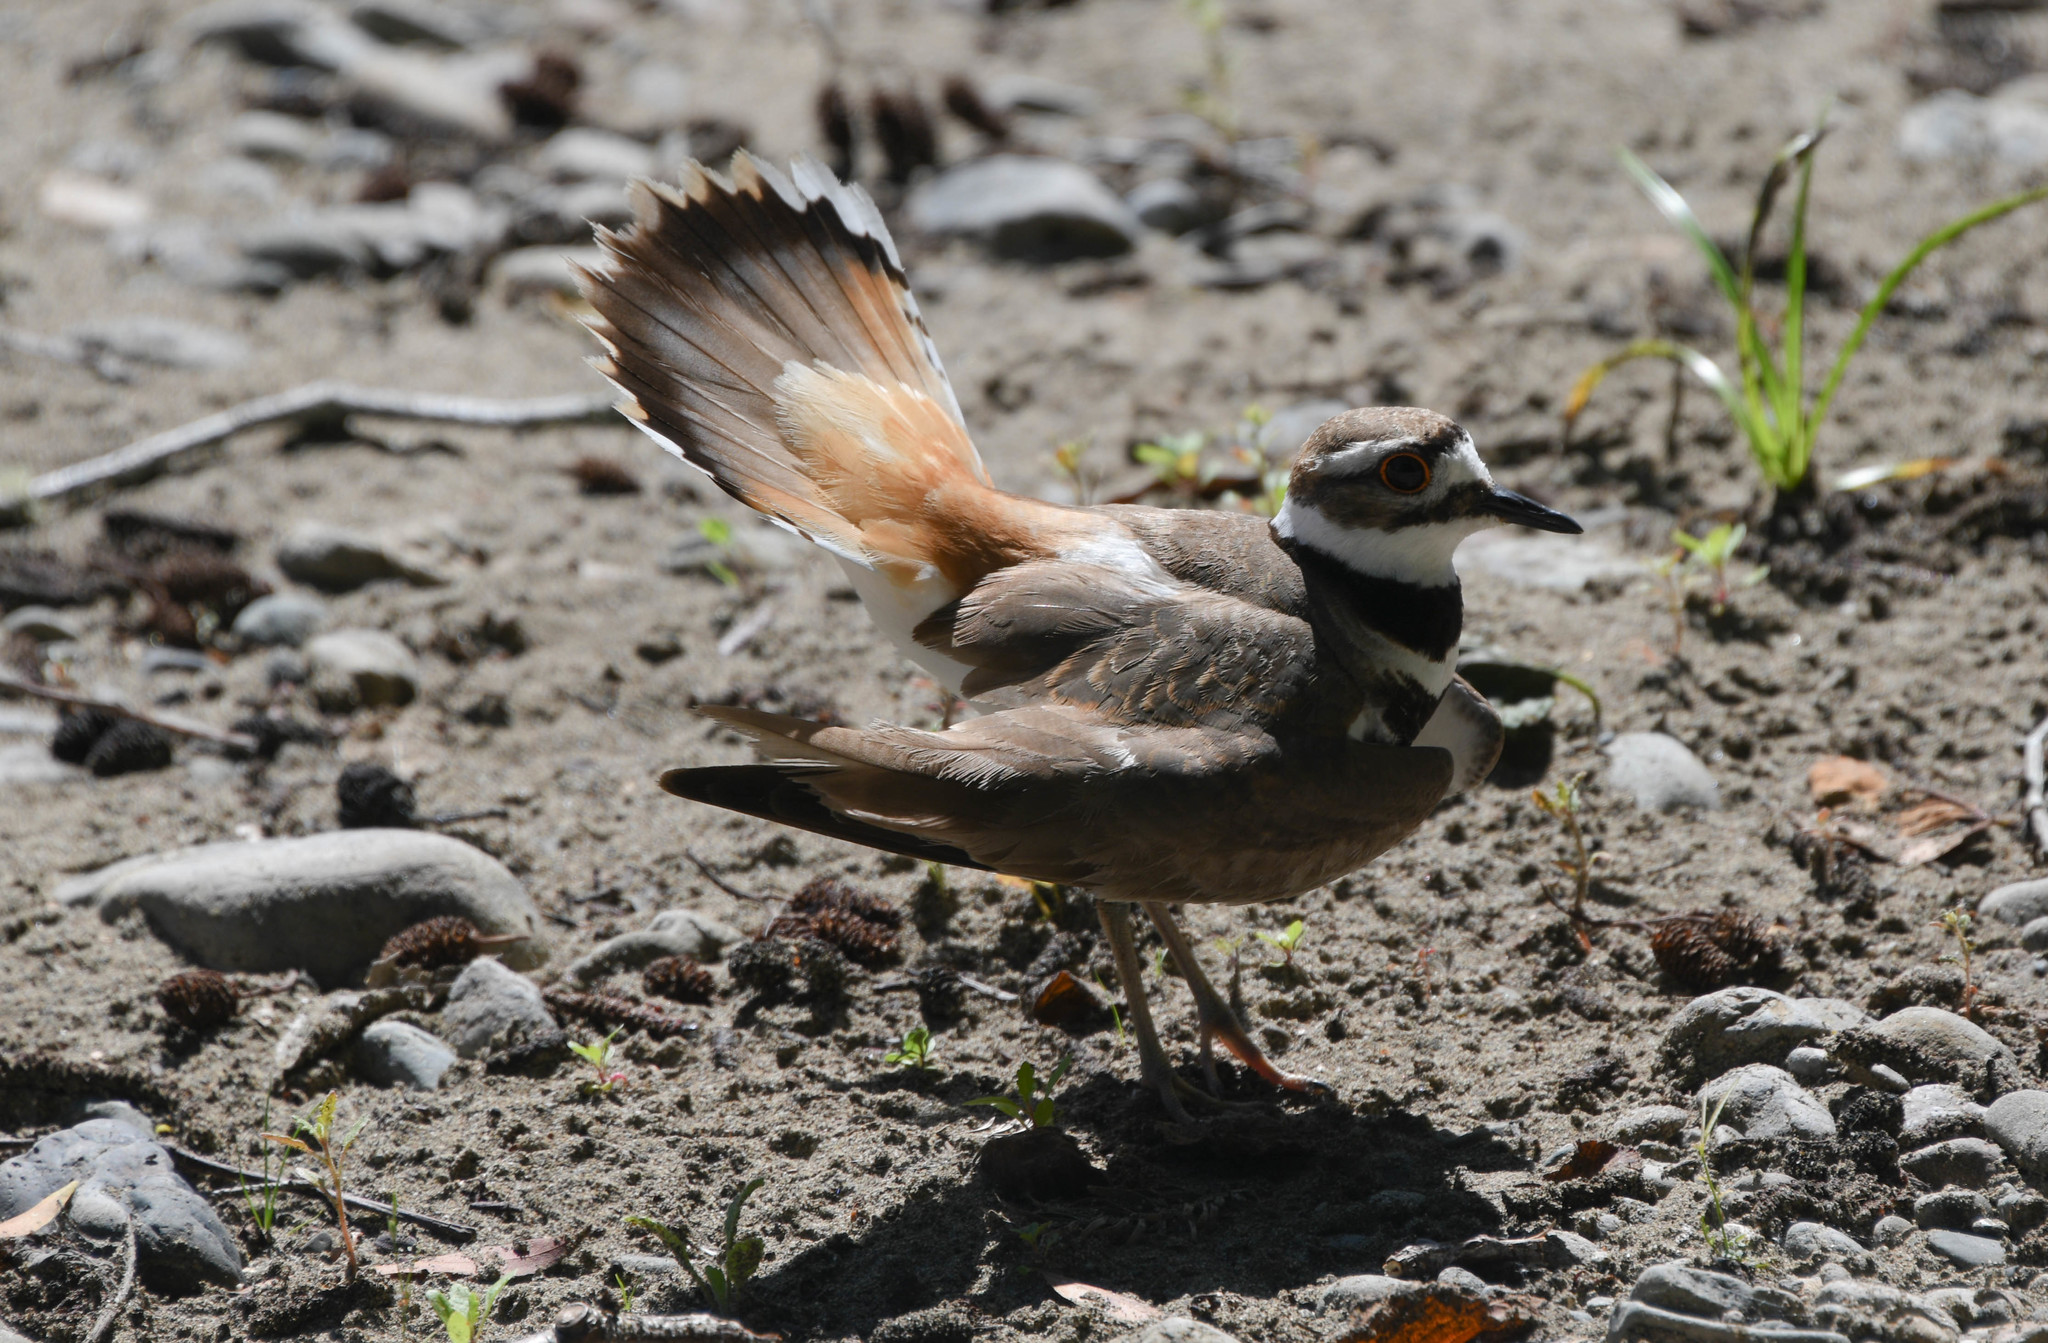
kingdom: Animalia
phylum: Chordata
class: Aves
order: Charadriiformes
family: Charadriidae
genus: Charadrius
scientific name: Charadrius vociferus
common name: Killdeer
